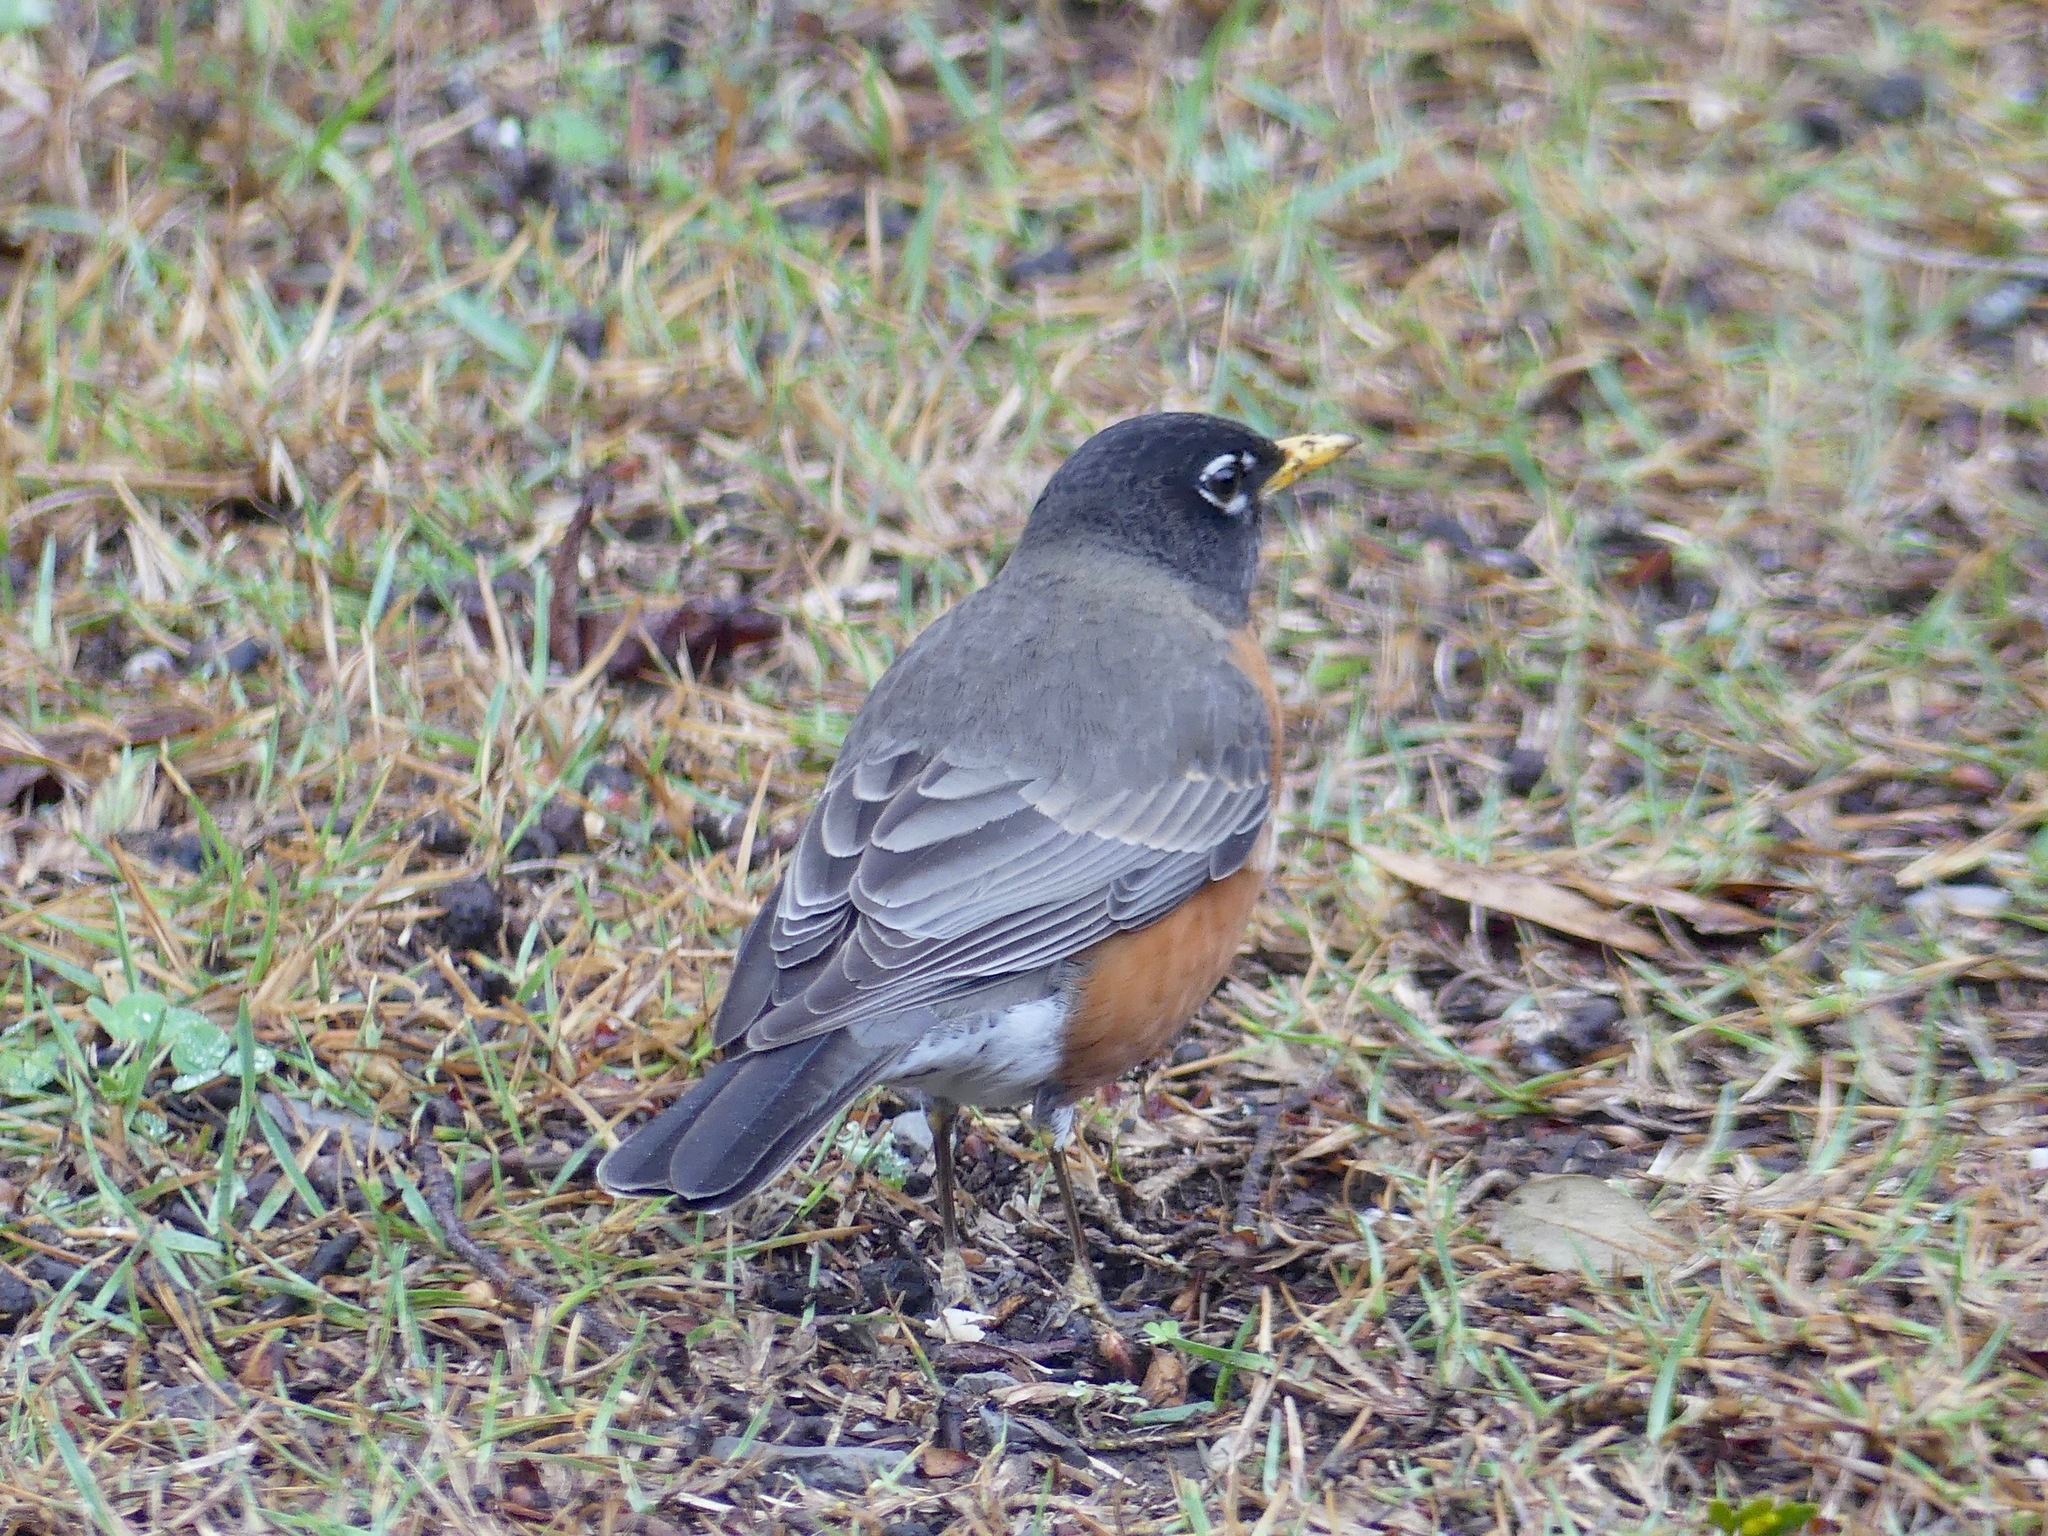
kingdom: Animalia
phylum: Chordata
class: Aves
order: Passeriformes
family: Turdidae
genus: Turdus
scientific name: Turdus migratorius
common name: American robin
